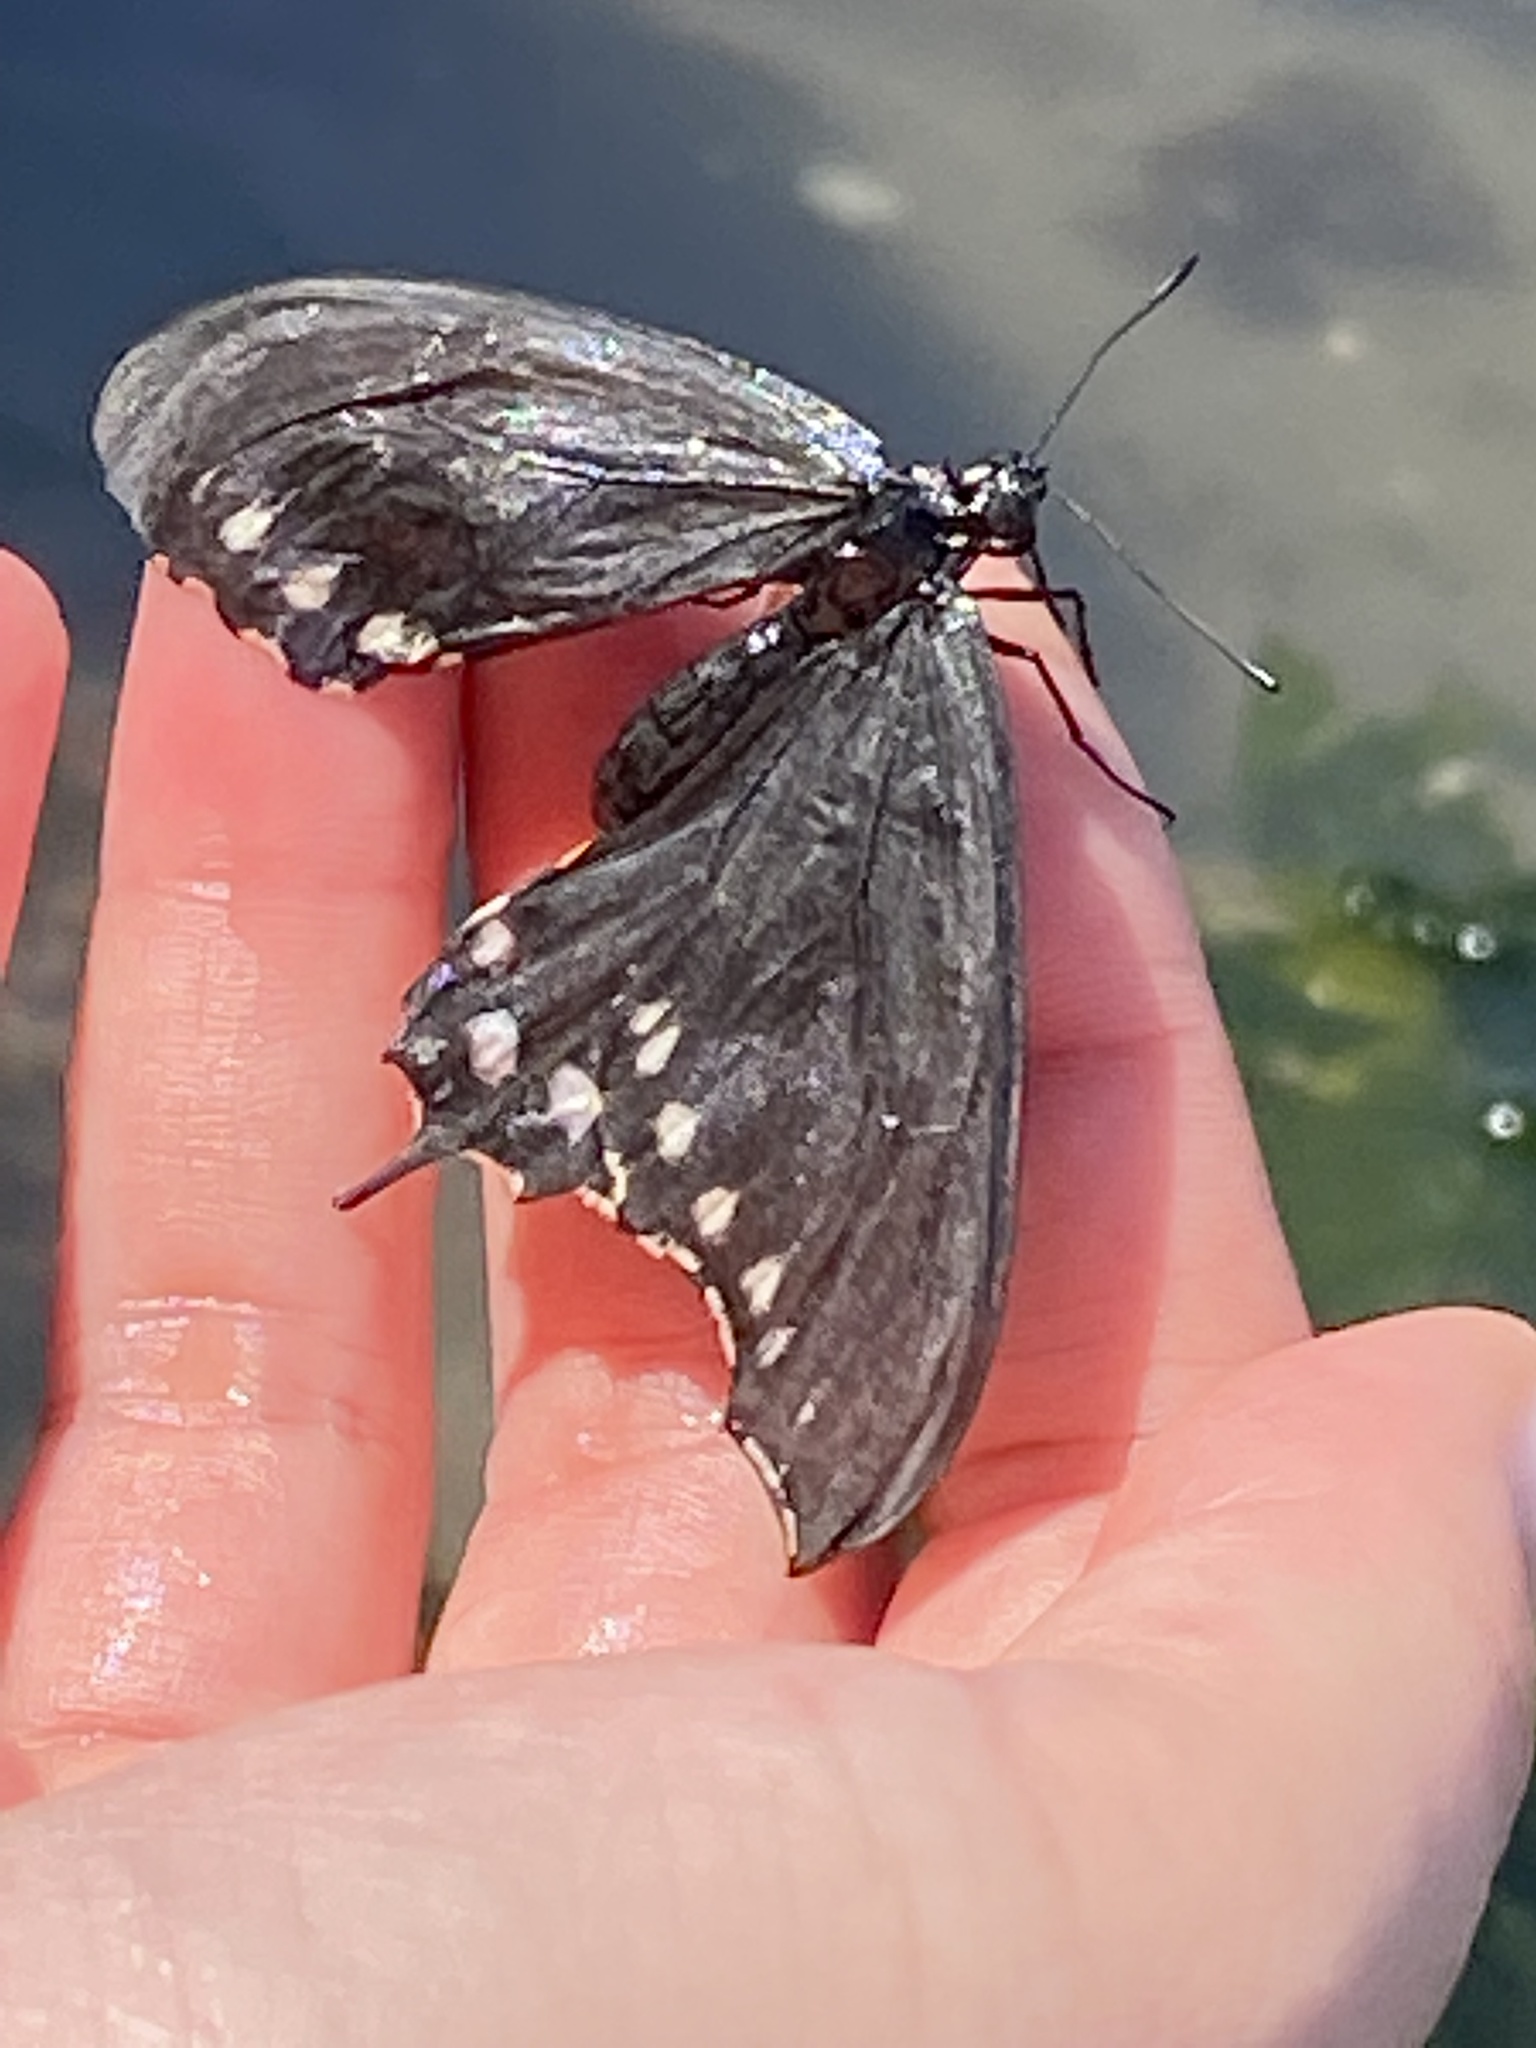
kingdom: Animalia
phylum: Arthropoda
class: Insecta
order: Lepidoptera
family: Papilionidae
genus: Battus
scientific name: Battus philenor
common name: Pipevine swallowtail
